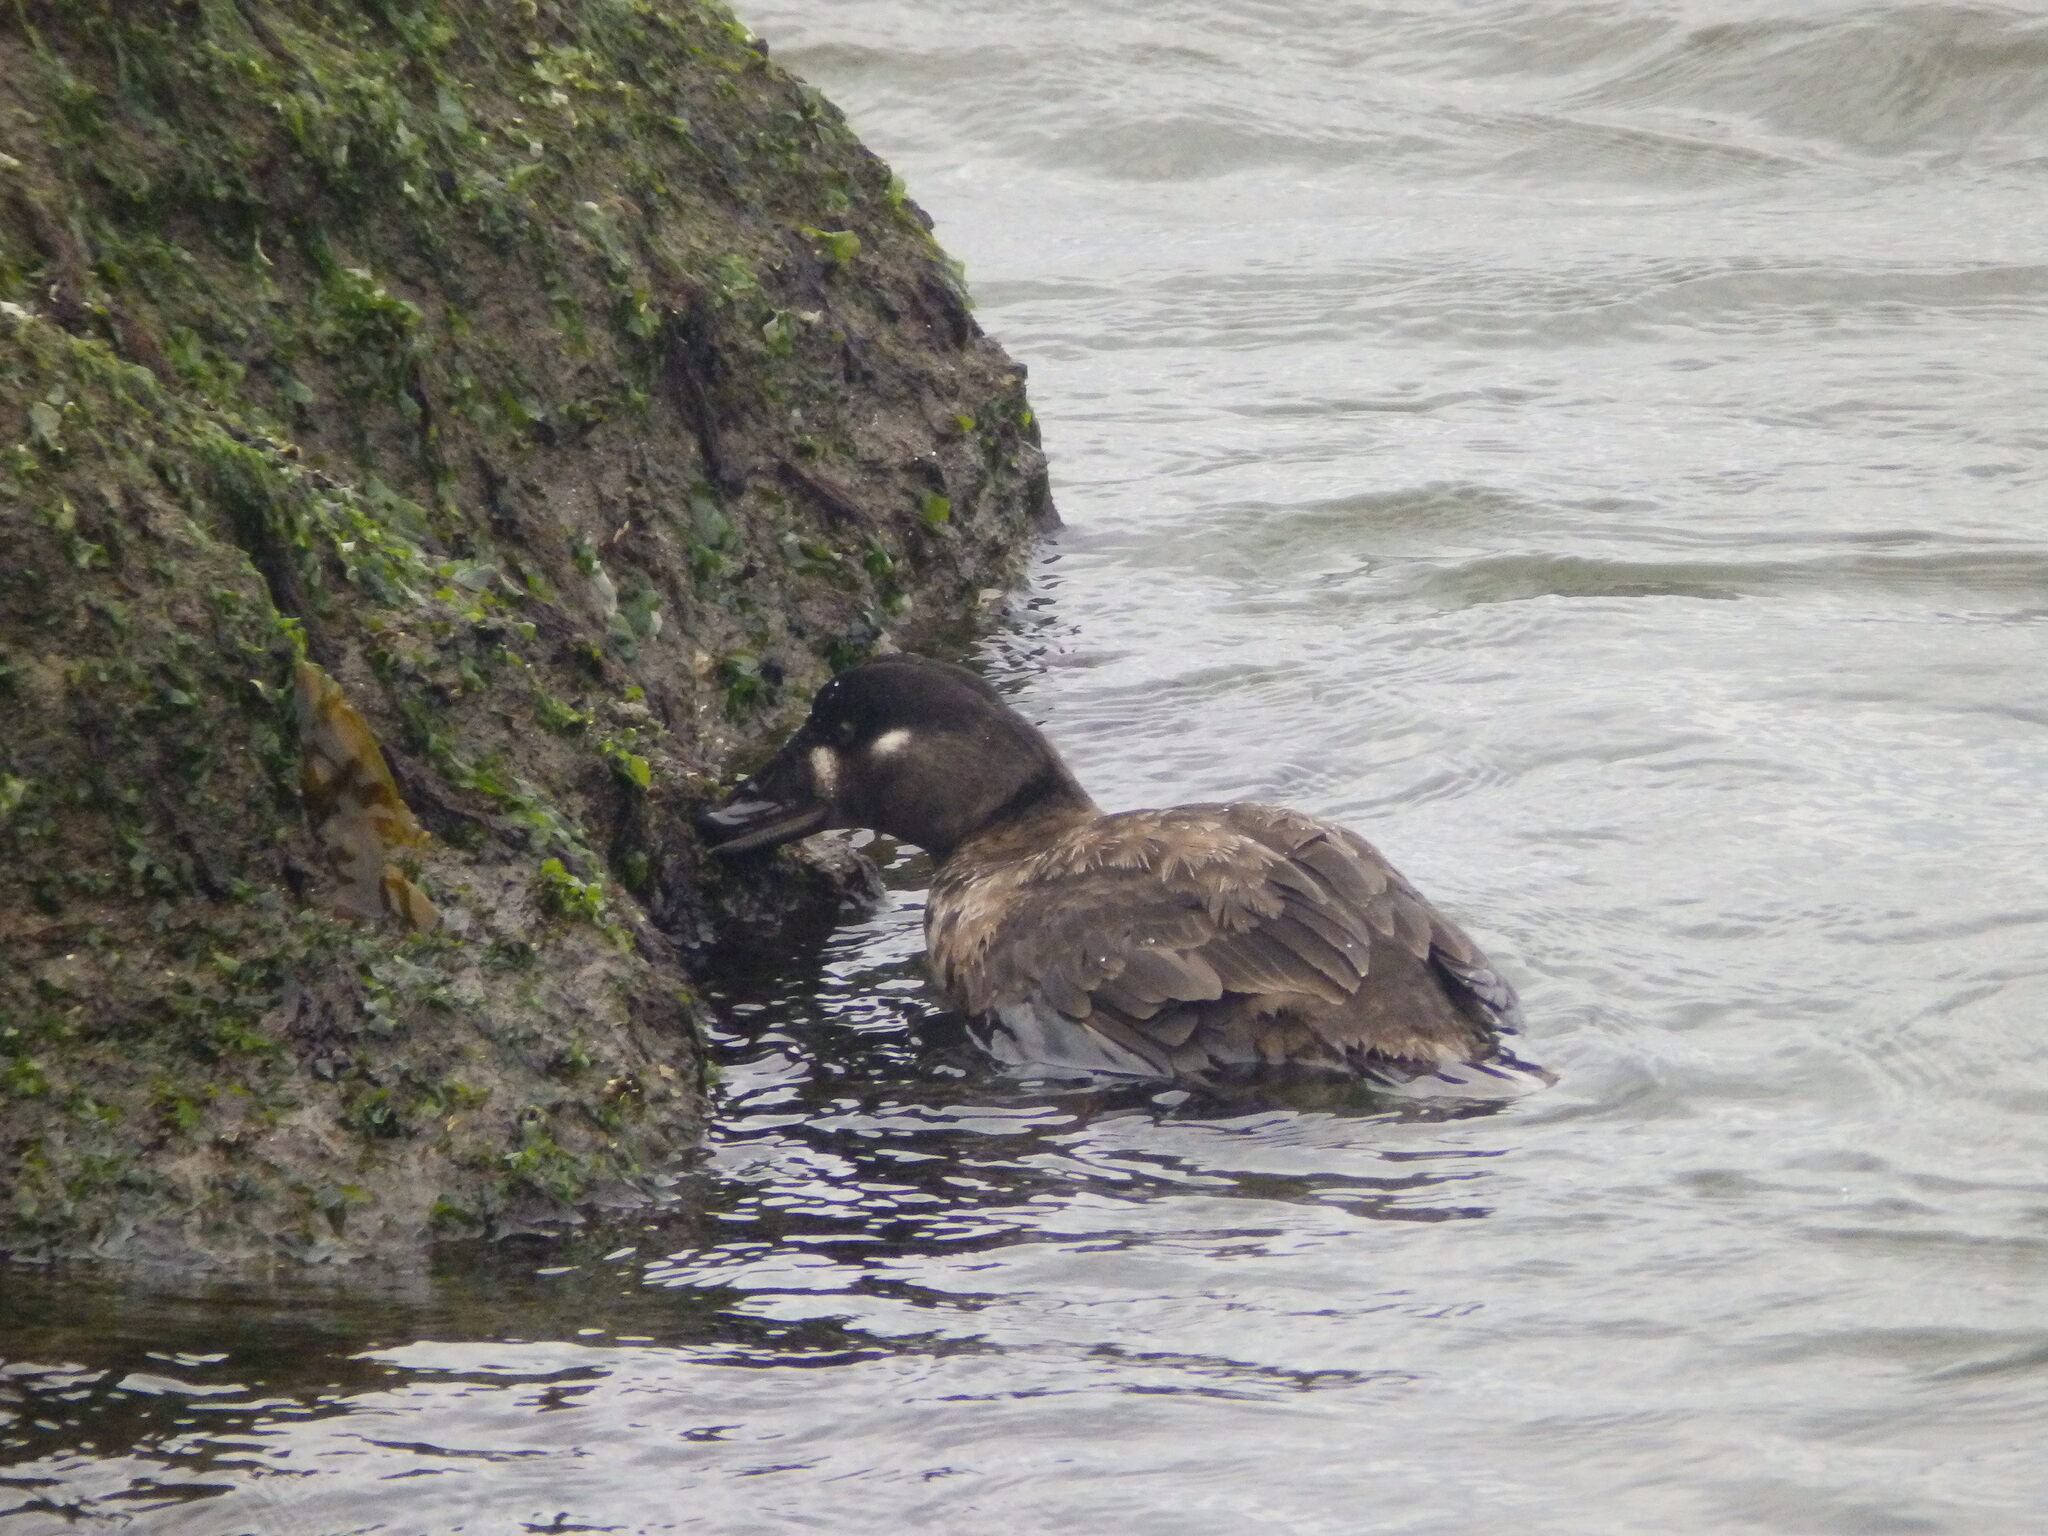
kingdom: Animalia
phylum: Chordata
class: Aves
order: Anseriformes
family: Anatidae
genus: Melanitta
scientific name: Melanitta perspicillata
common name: Surf scoter
